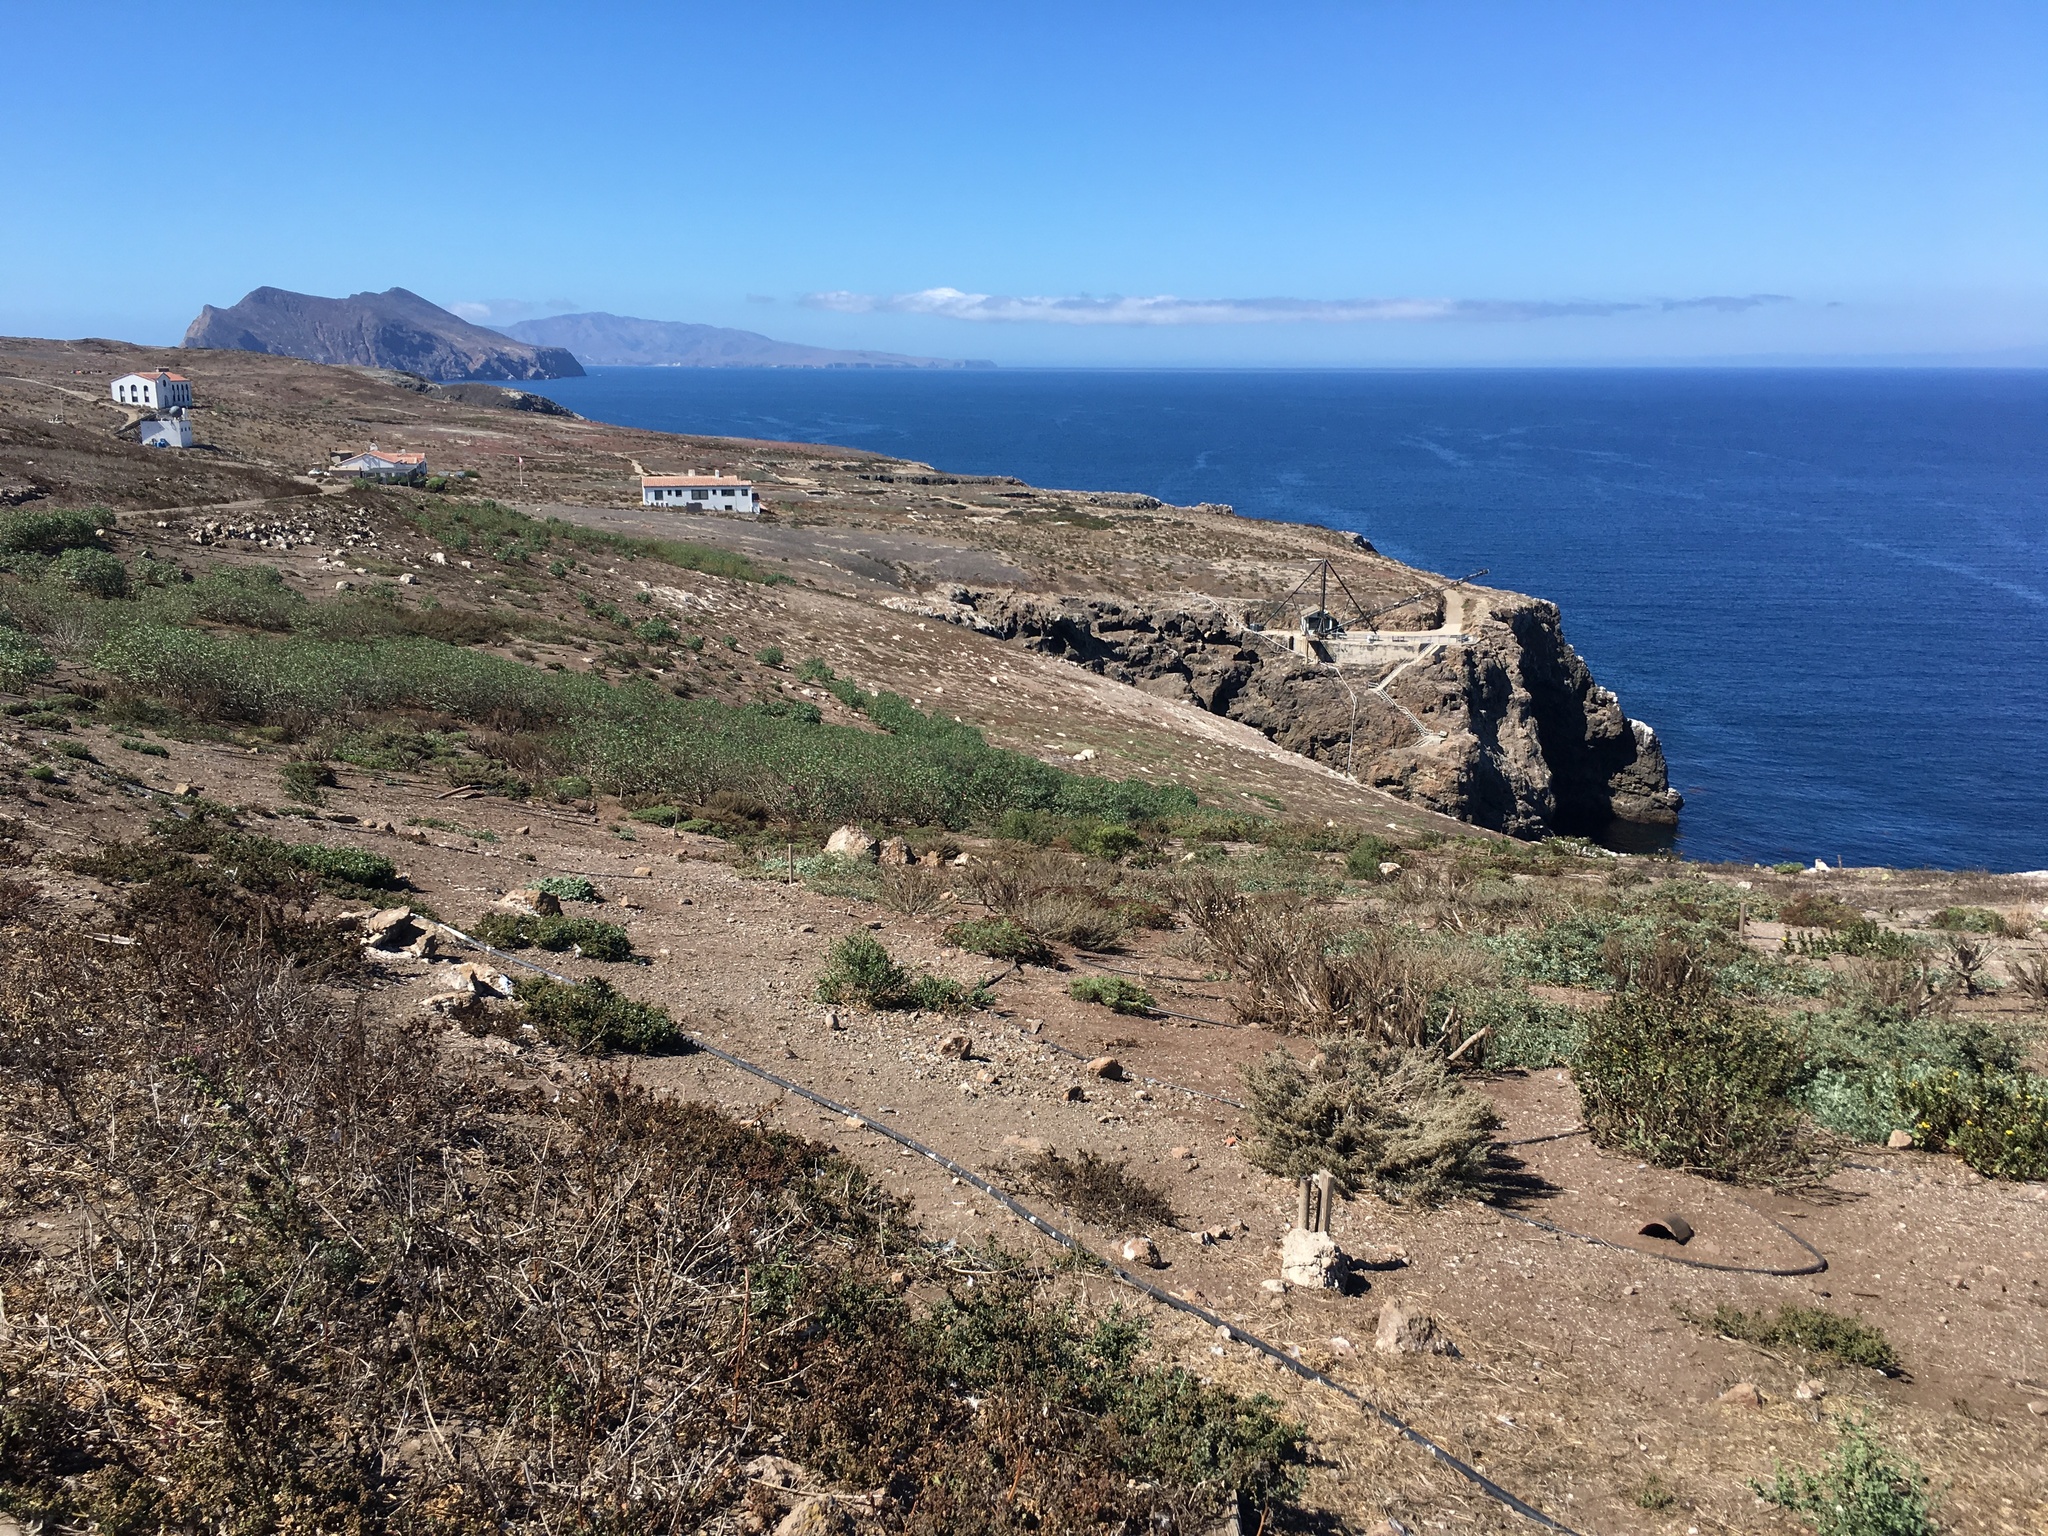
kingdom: Plantae
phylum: Tracheophyta
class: Magnoliopsida
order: Malvales
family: Malvaceae
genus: Malva
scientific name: Malva assurgentiflora
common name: Island mallow
